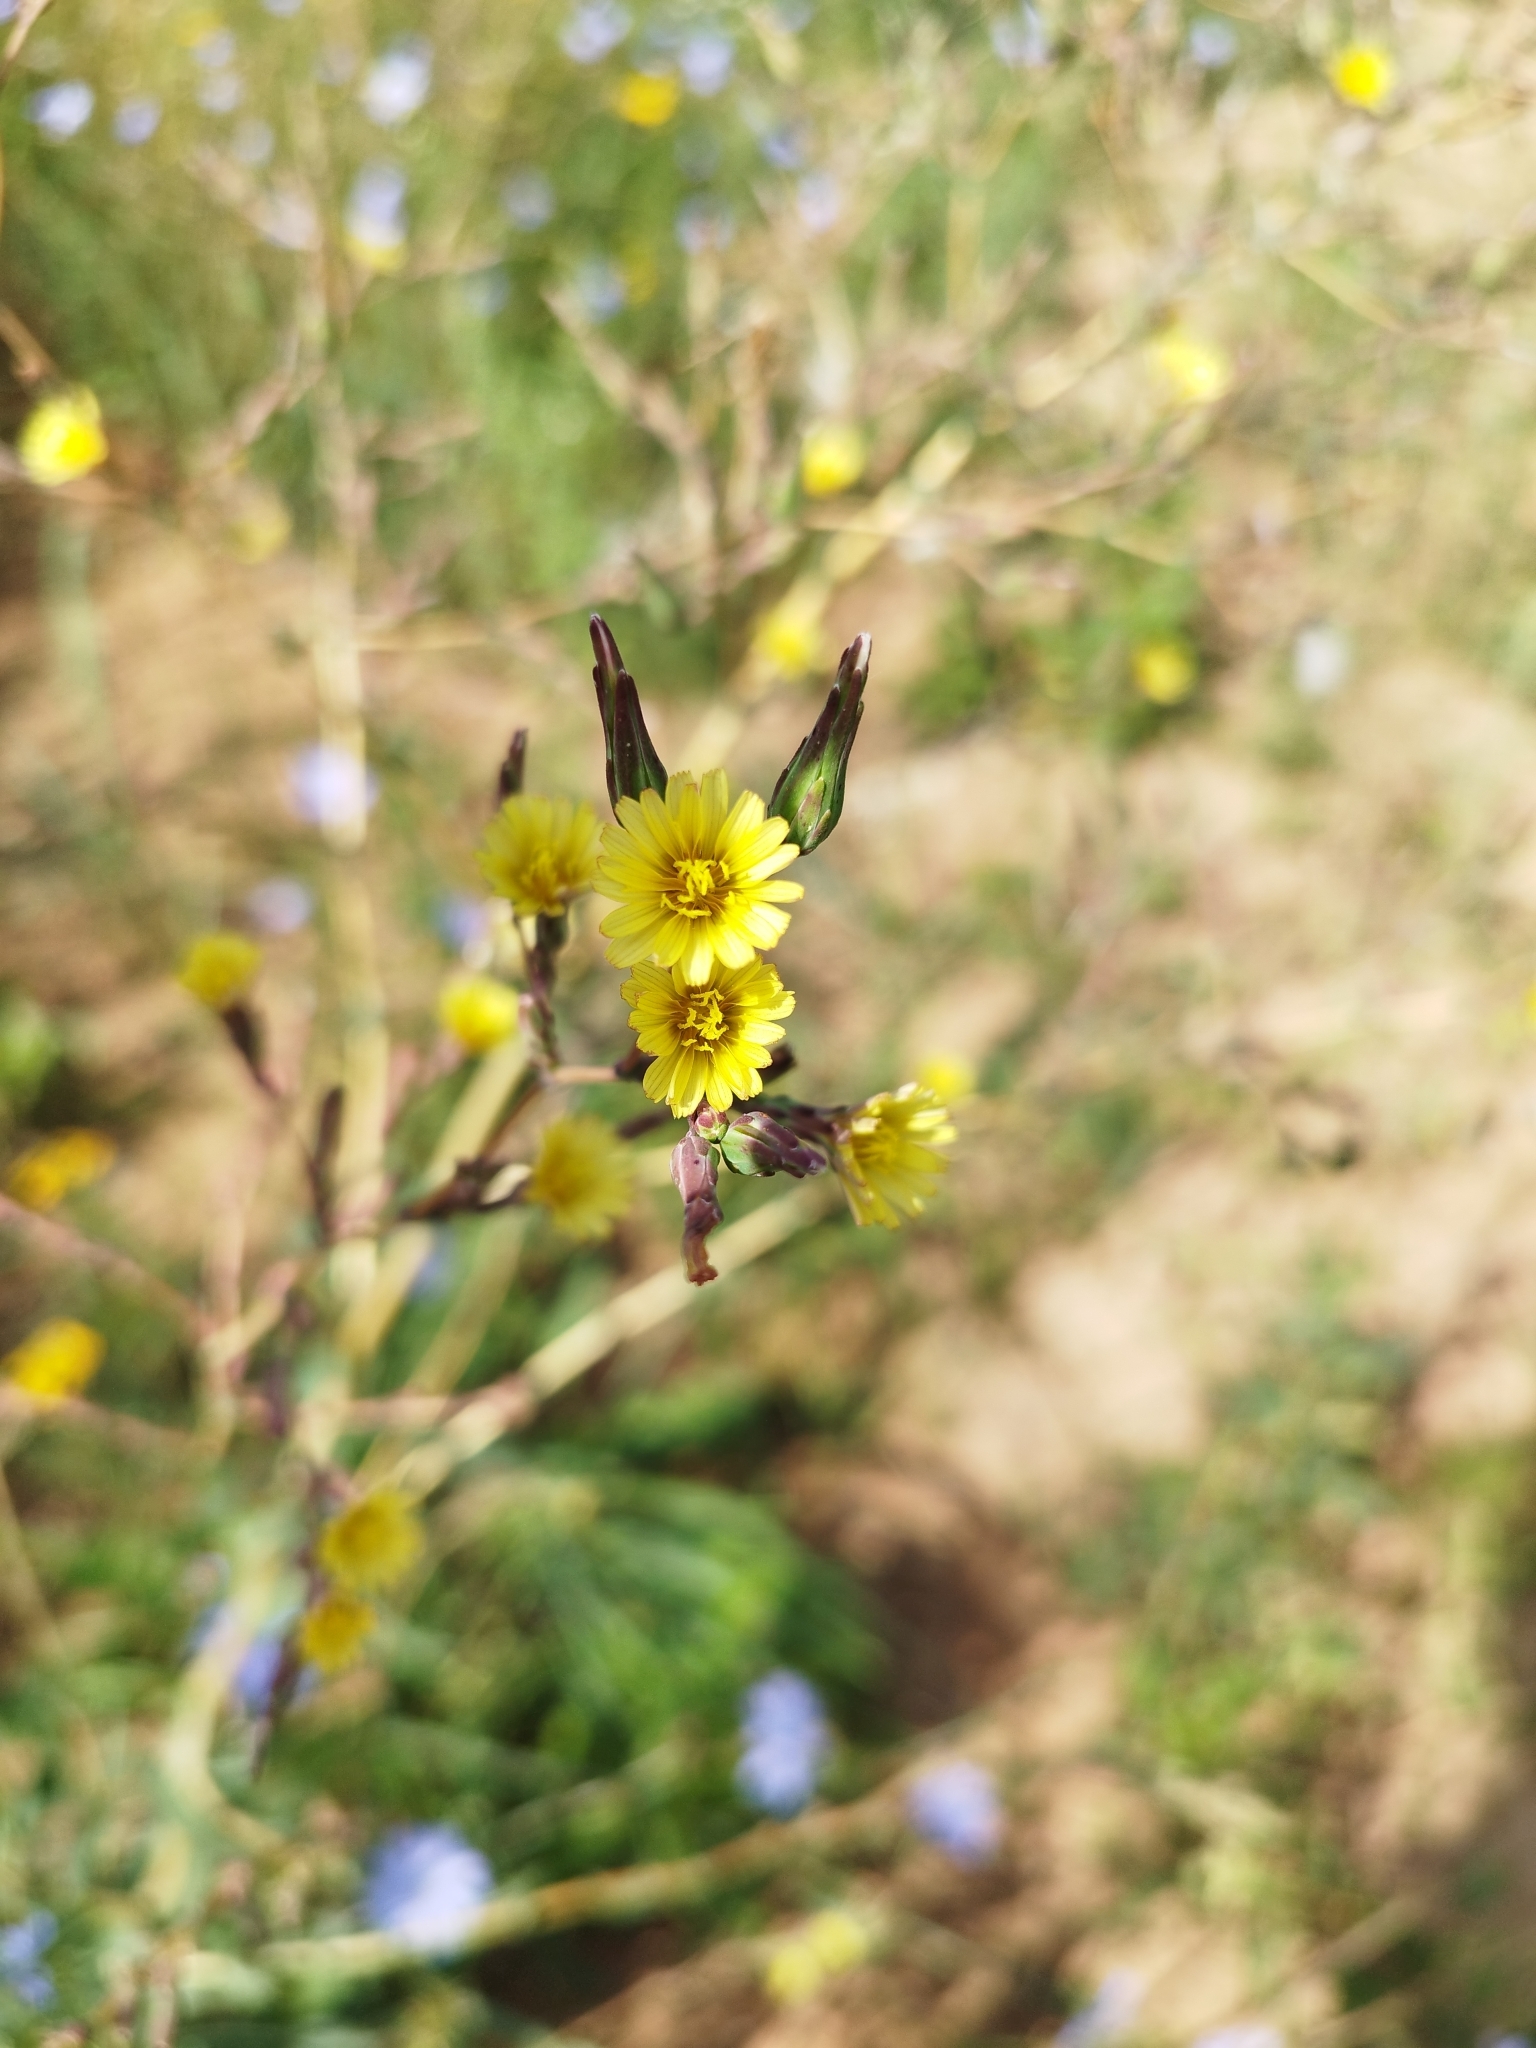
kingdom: Plantae
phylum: Tracheophyta
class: Magnoliopsida
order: Asterales
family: Asteraceae
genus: Lactuca
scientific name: Lactuca serriola
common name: Prickly lettuce
